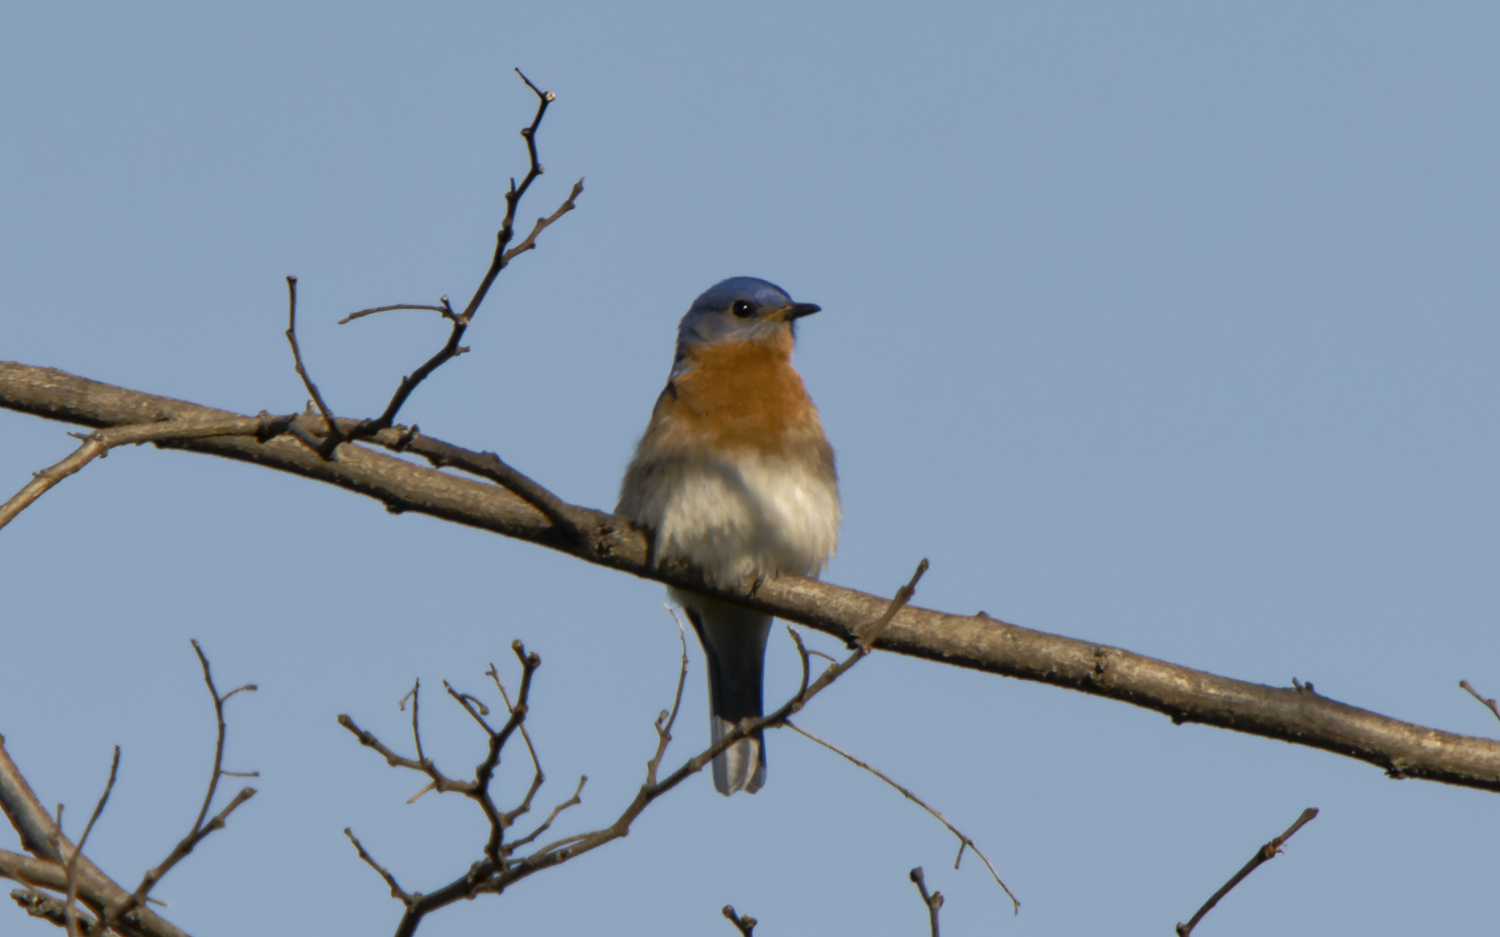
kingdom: Animalia
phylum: Chordata
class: Aves
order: Passeriformes
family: Turdidae
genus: Sialia
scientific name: Sialia sialis
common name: Eastern bluebird
